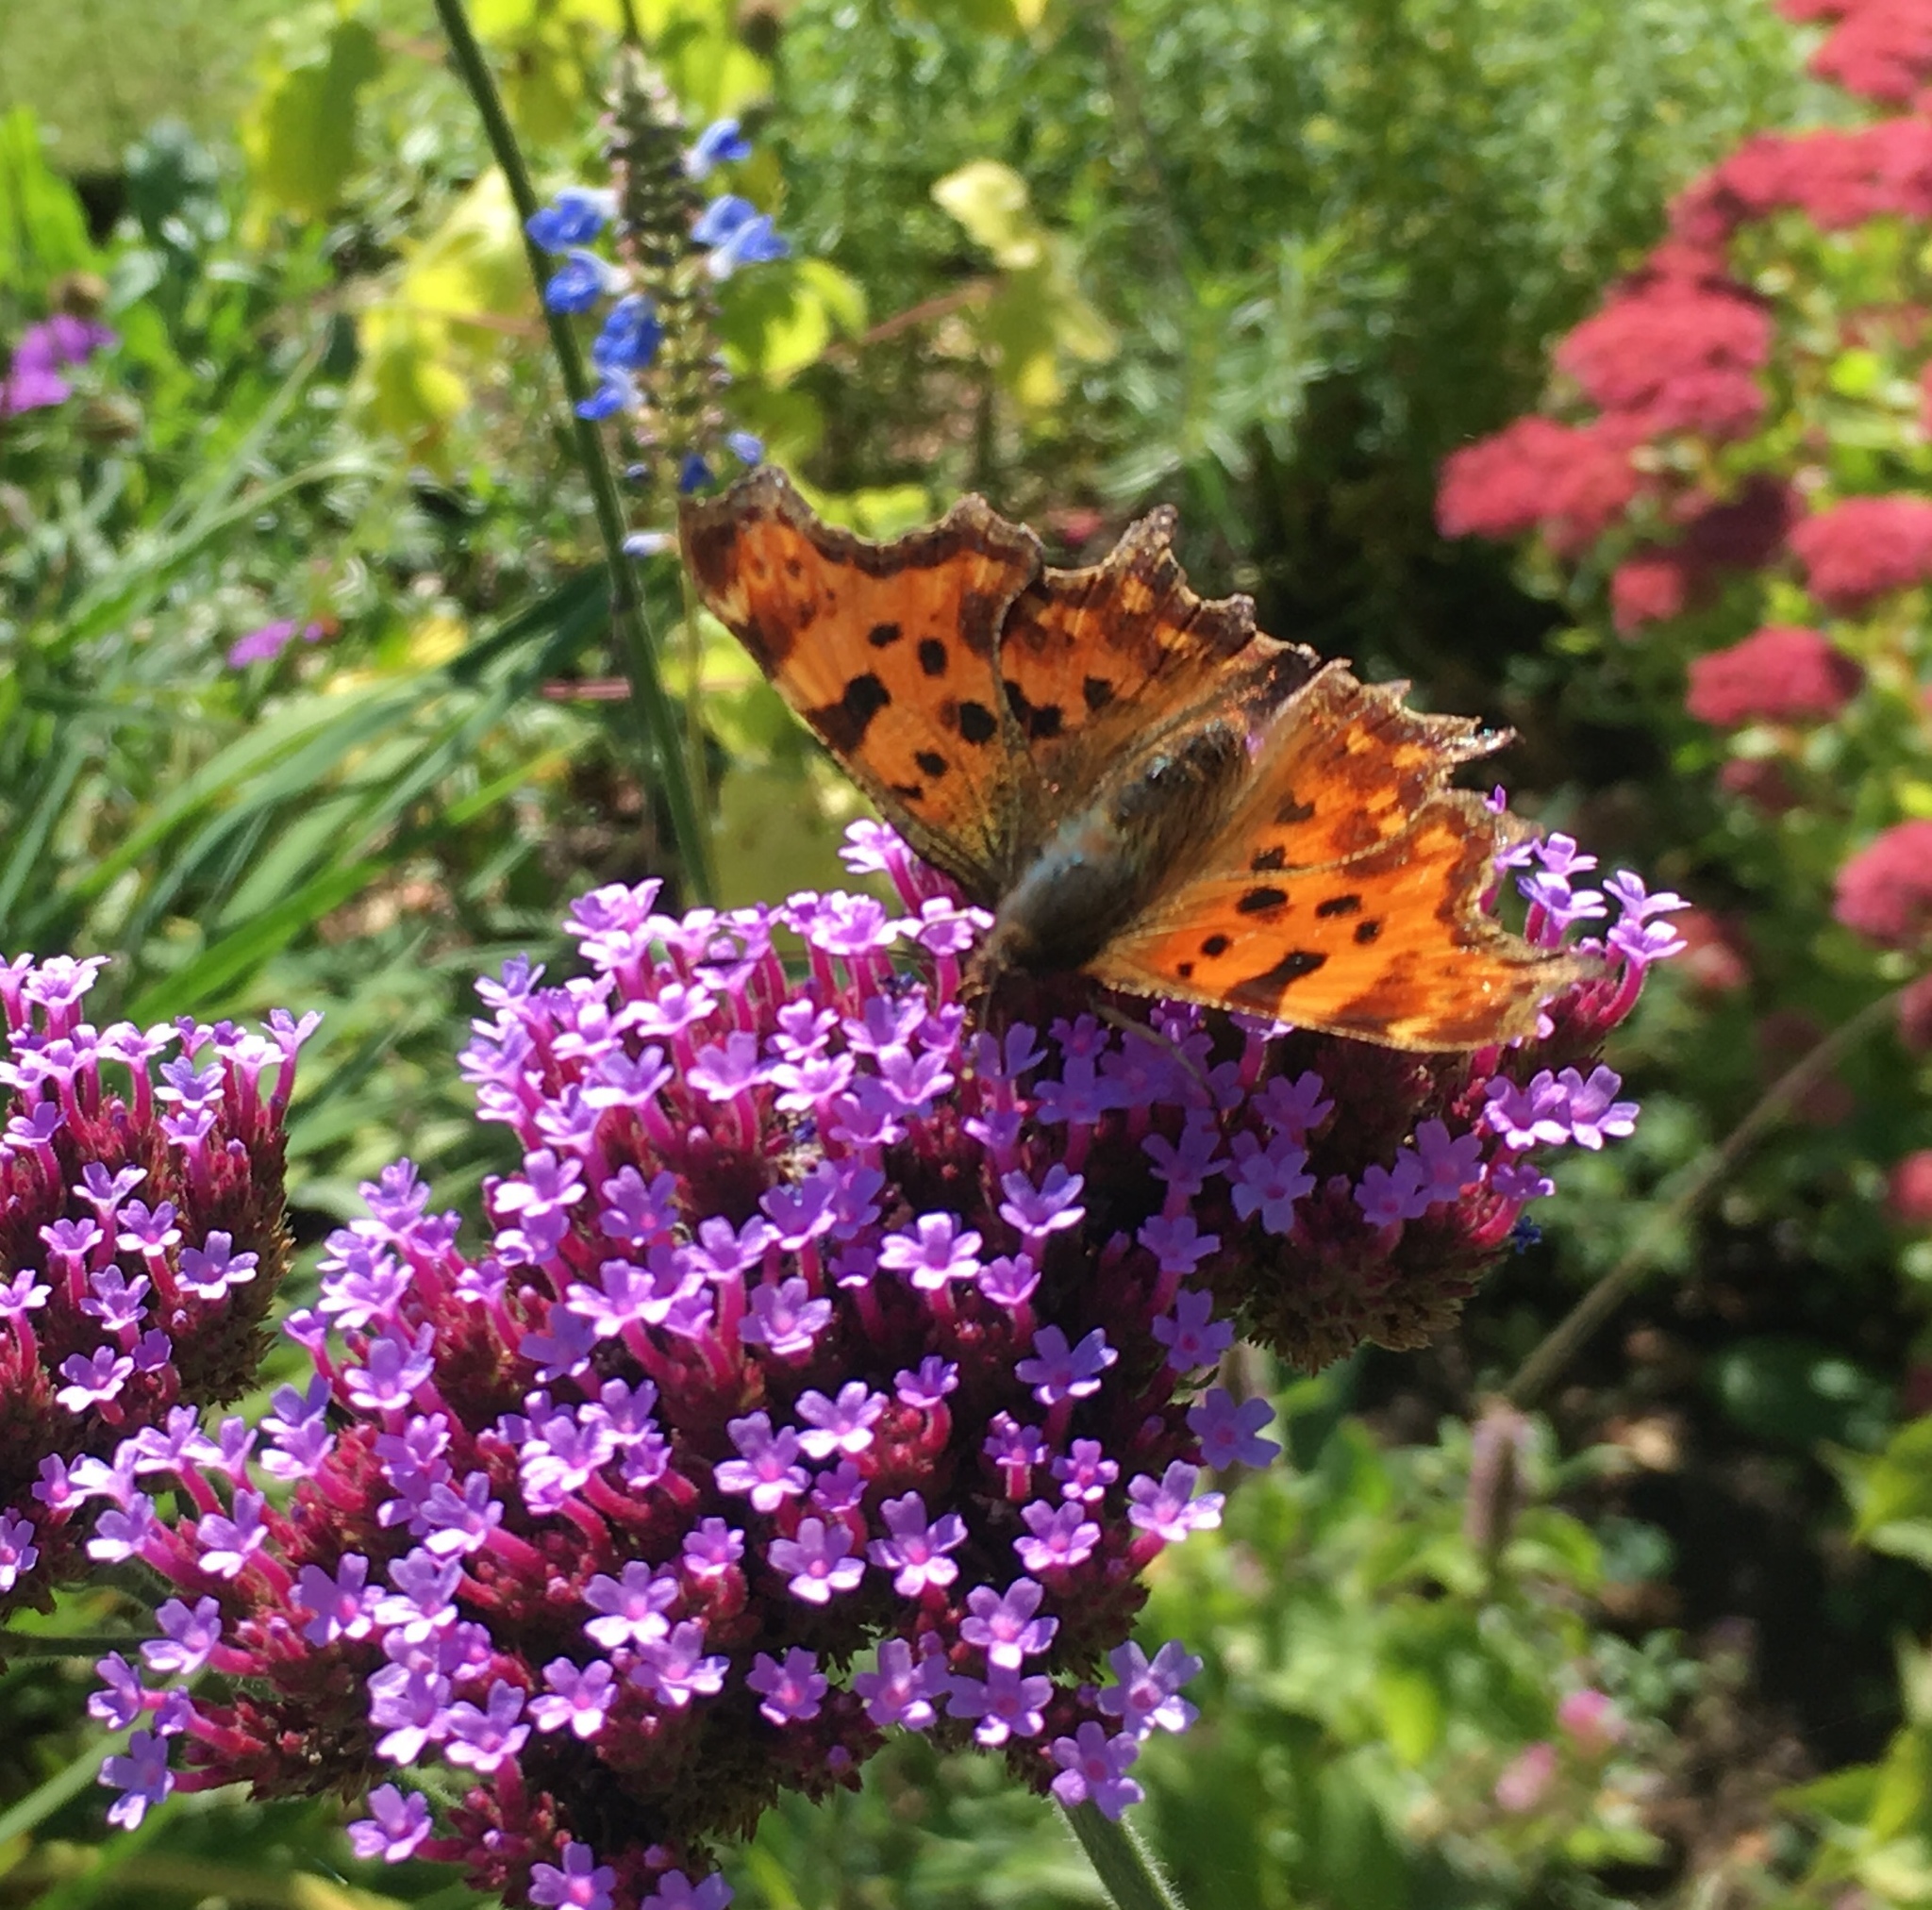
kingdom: Animalia
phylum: Arthropoda
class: Insecta
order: Lepidoptera
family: Nymphalidae
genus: Polygonia
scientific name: Polygonia c-album
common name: Comma
